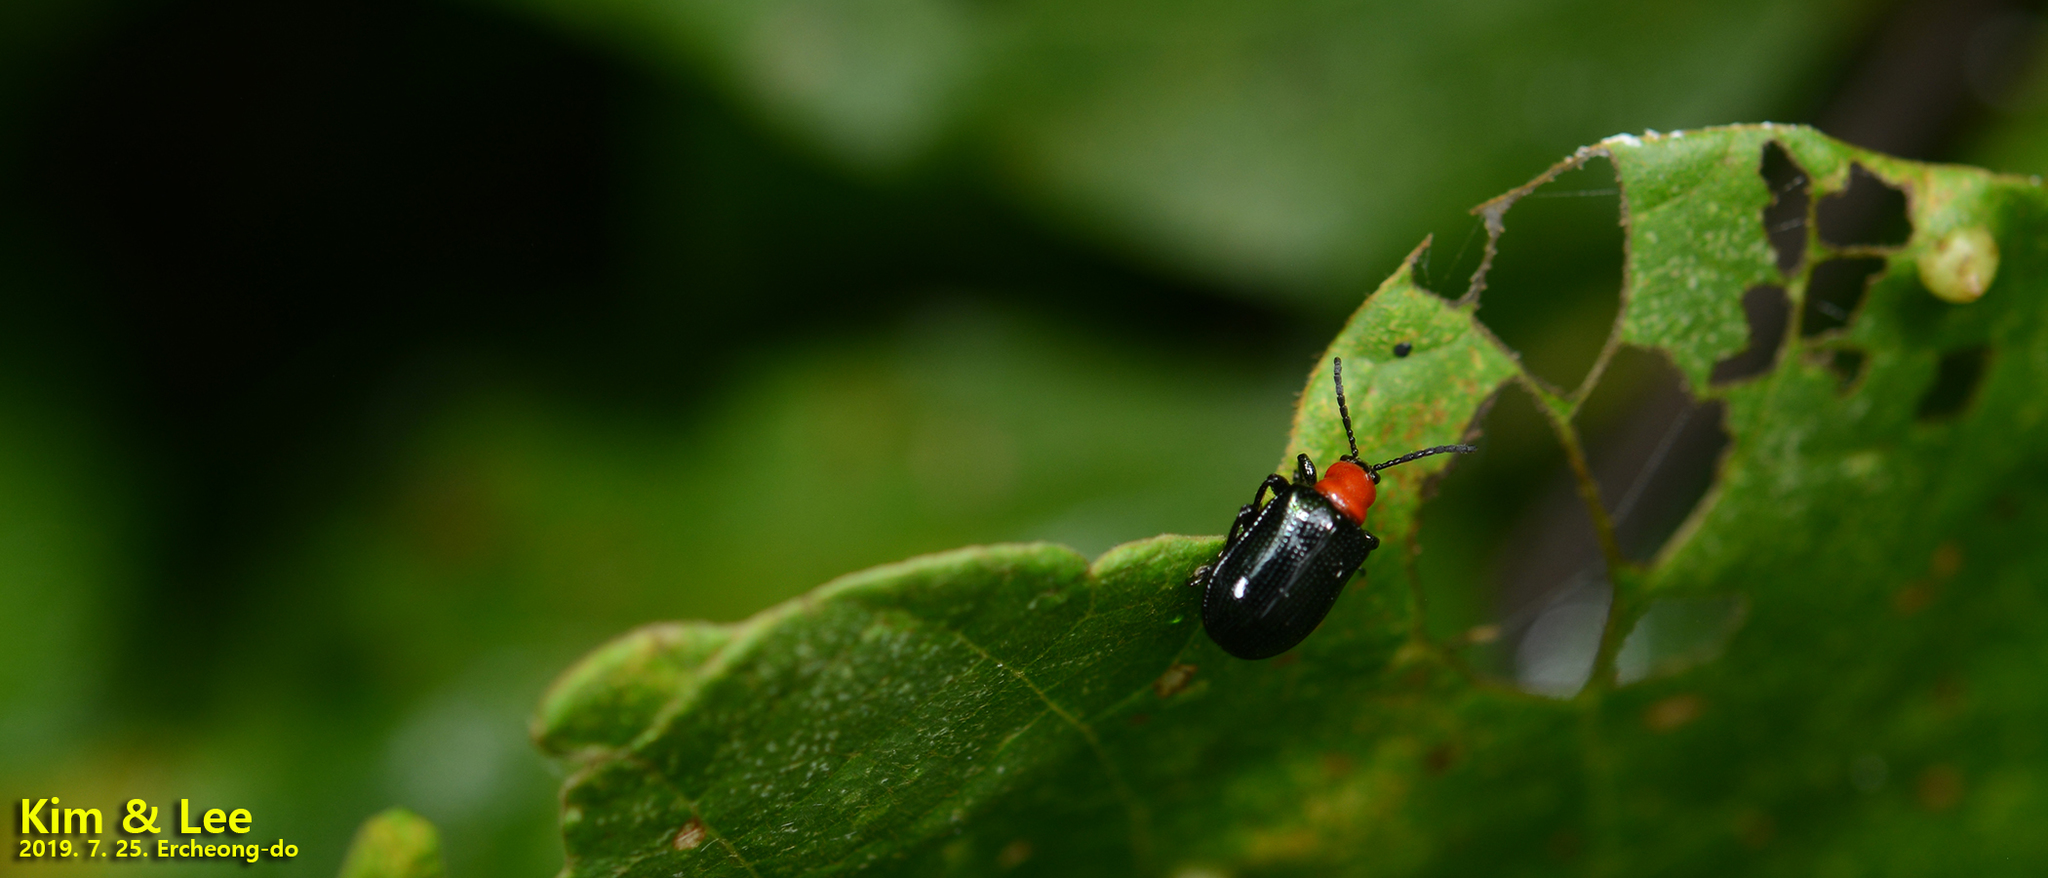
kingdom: Animalia
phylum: Arthropoda
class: Insecta
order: Coleoptera
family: Chrysomelidae
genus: Lilioceris
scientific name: Lilioceris sieversi
